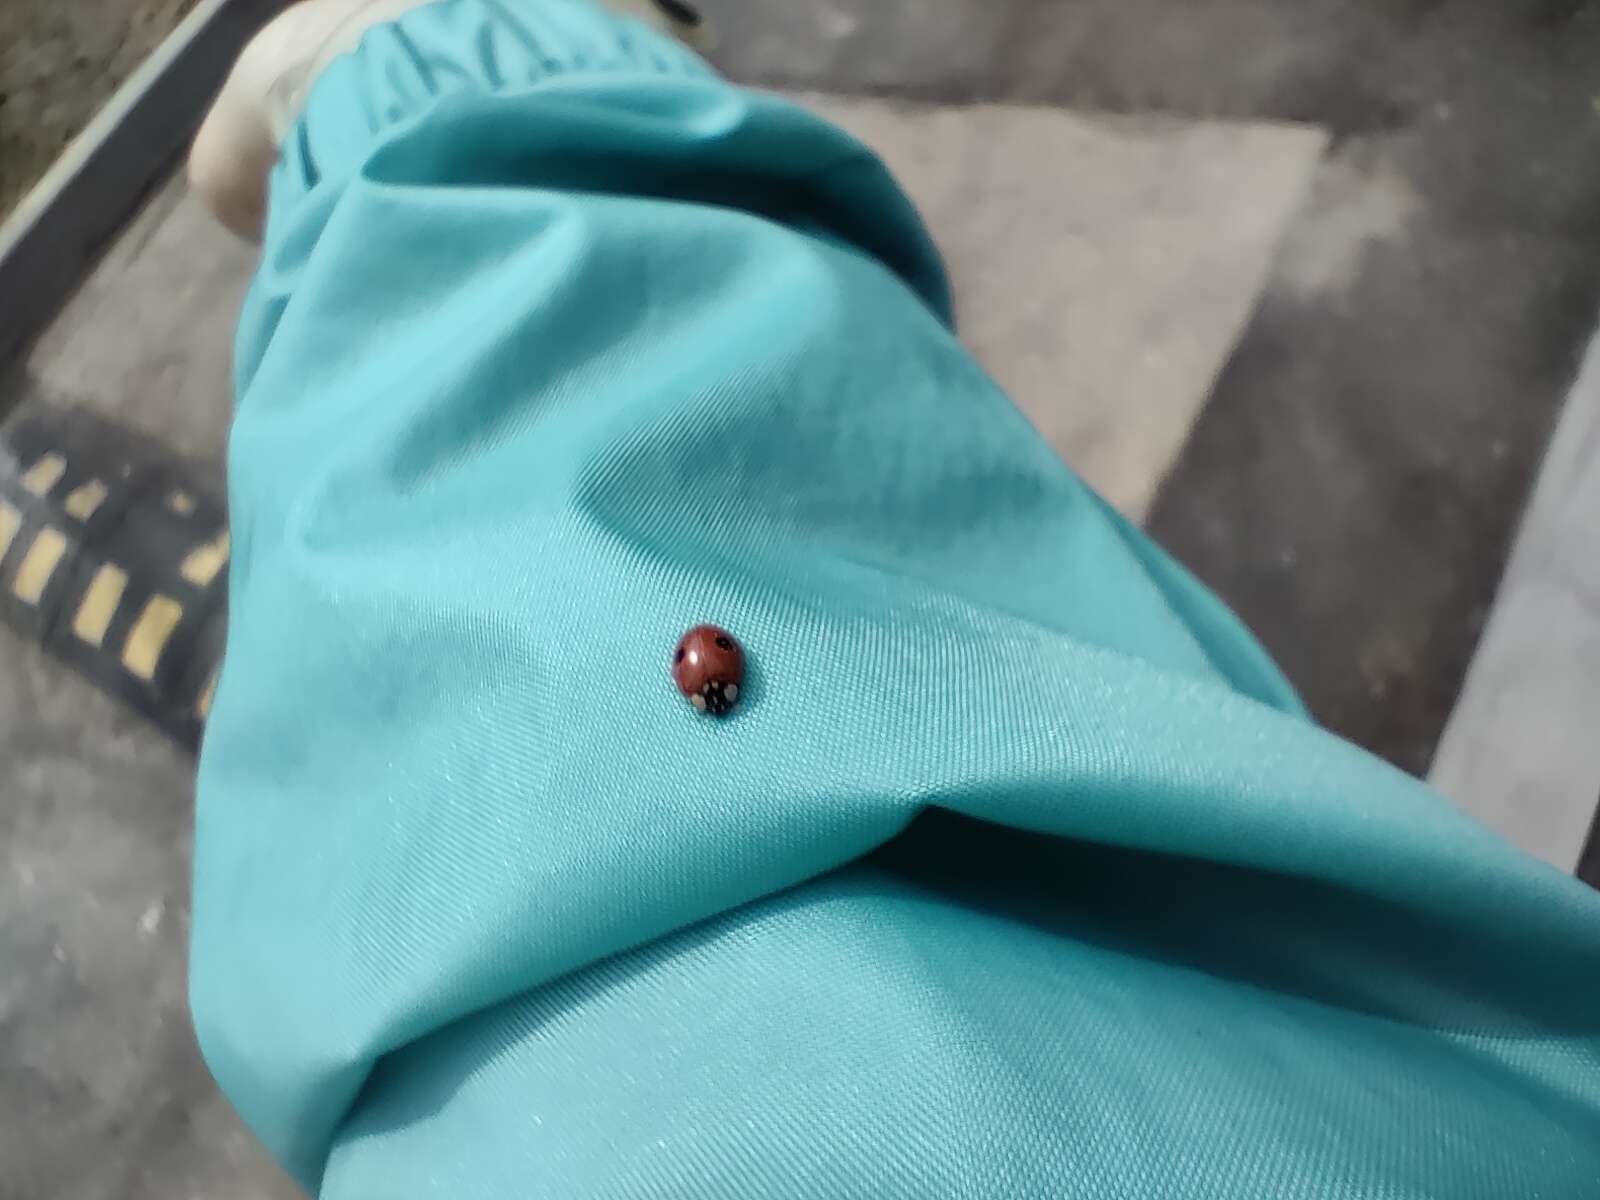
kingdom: Animalia
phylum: Arthropoda
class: Insecta
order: Coleoptera
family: Coccinellidae
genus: Adalia
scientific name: Adalia bipunctata
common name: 2-spot ladybird
